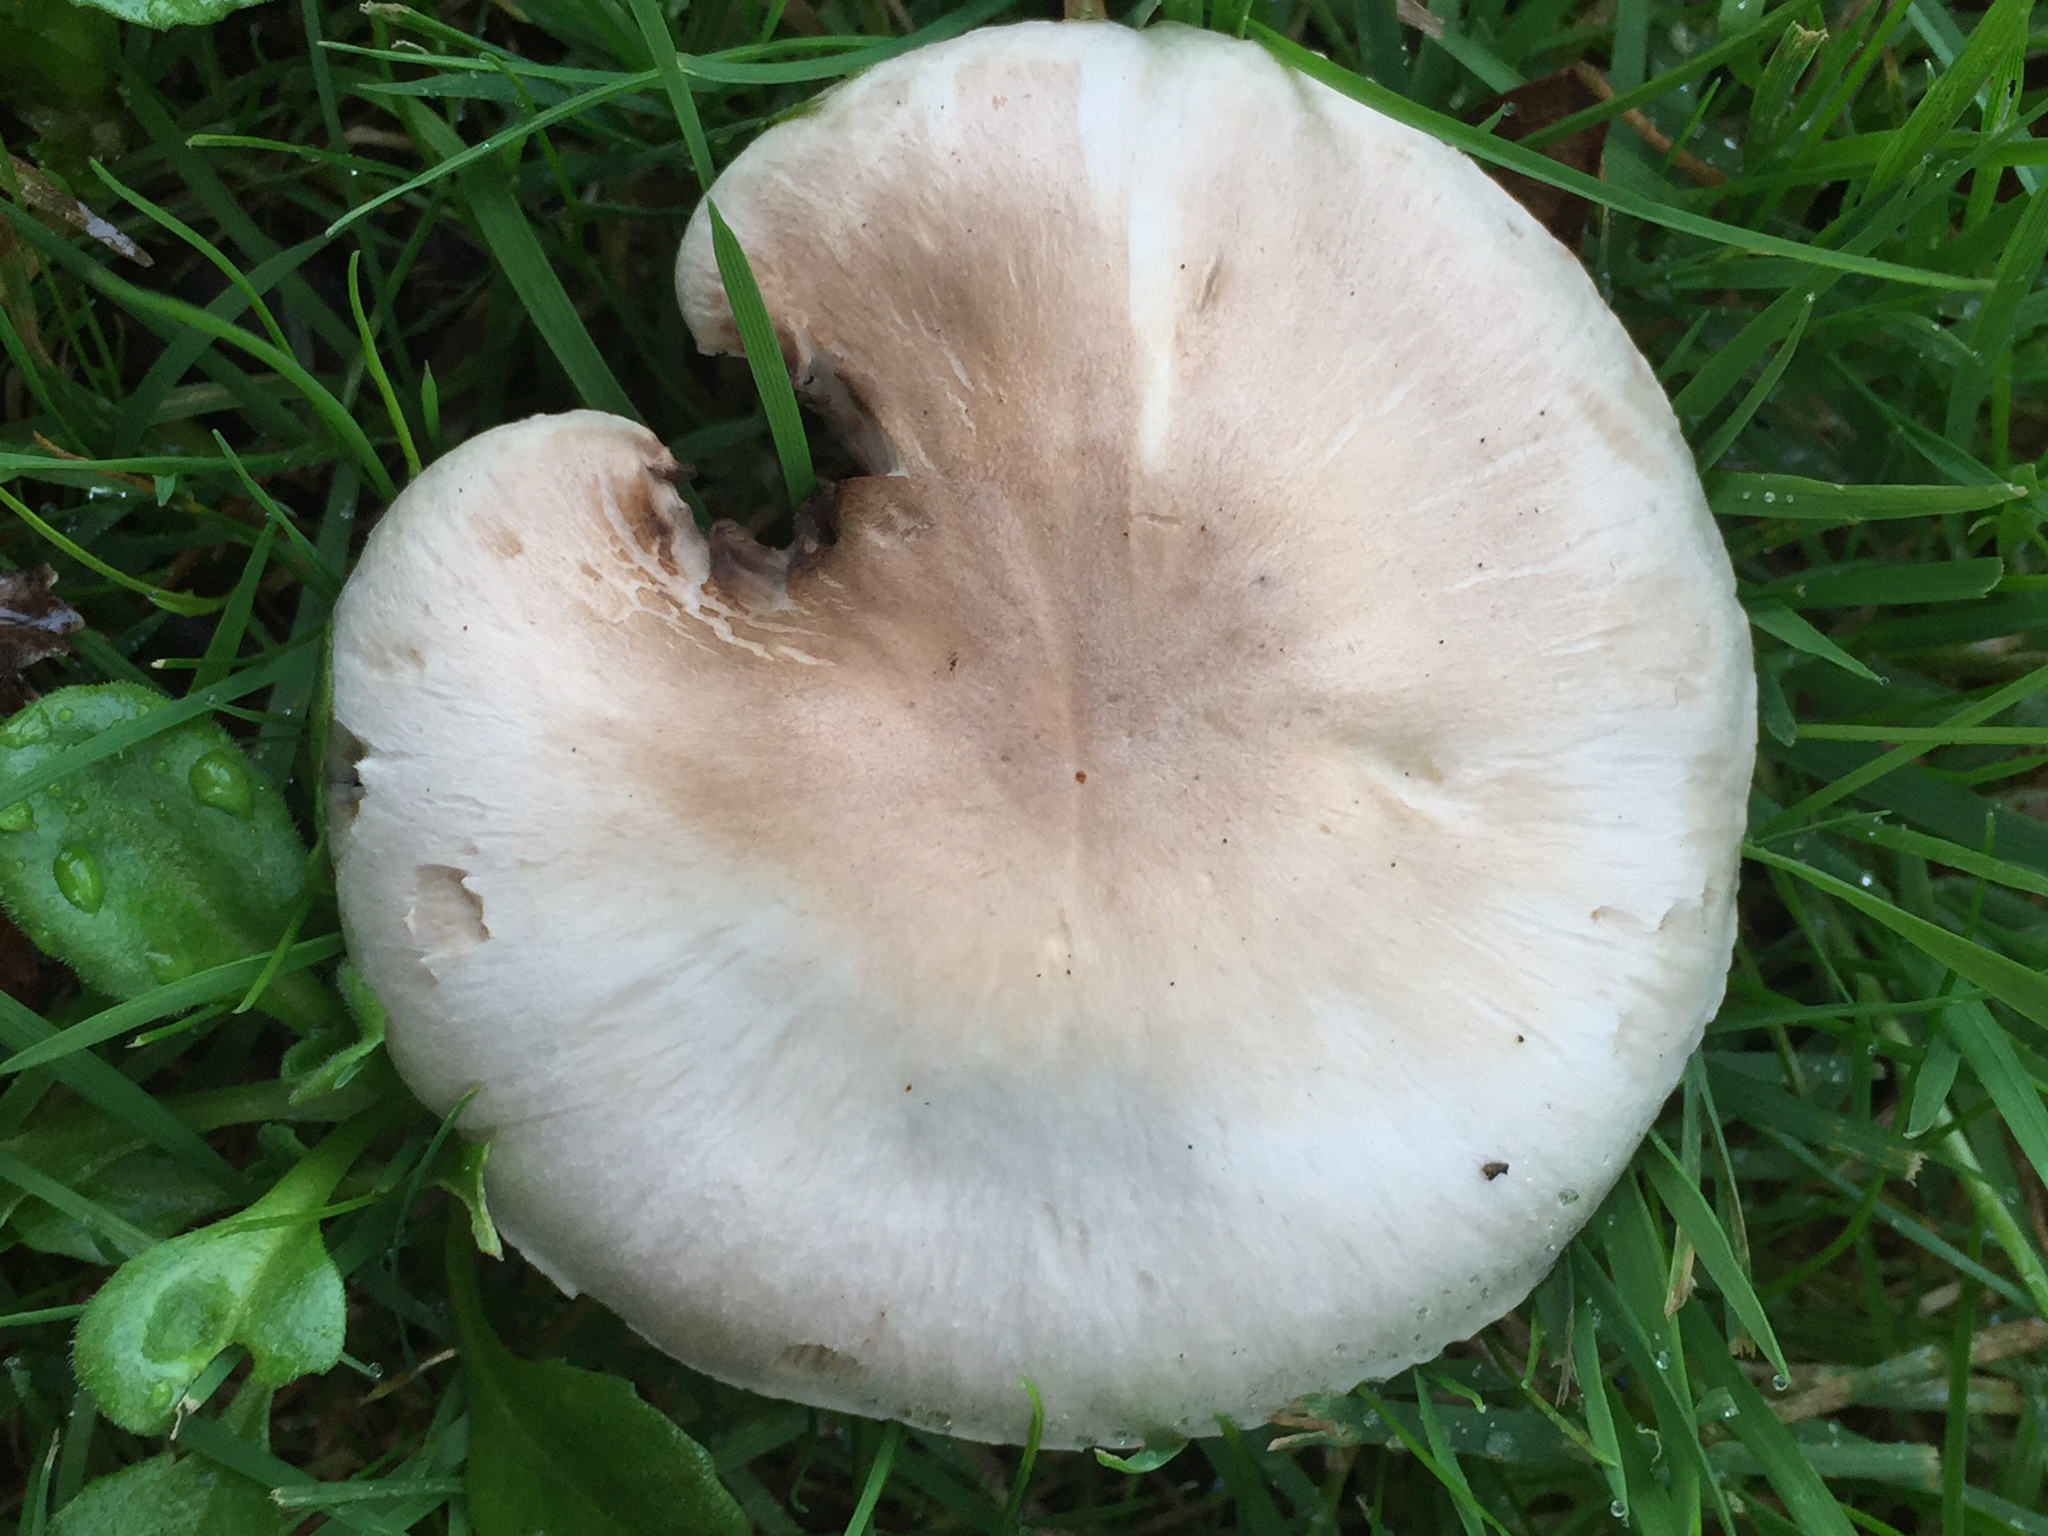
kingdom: Fungi
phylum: Basidiomycota
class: Agaricomycetes
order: Agaricales
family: Agaricaceae
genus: Agaricus
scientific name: Agaricus californicus
